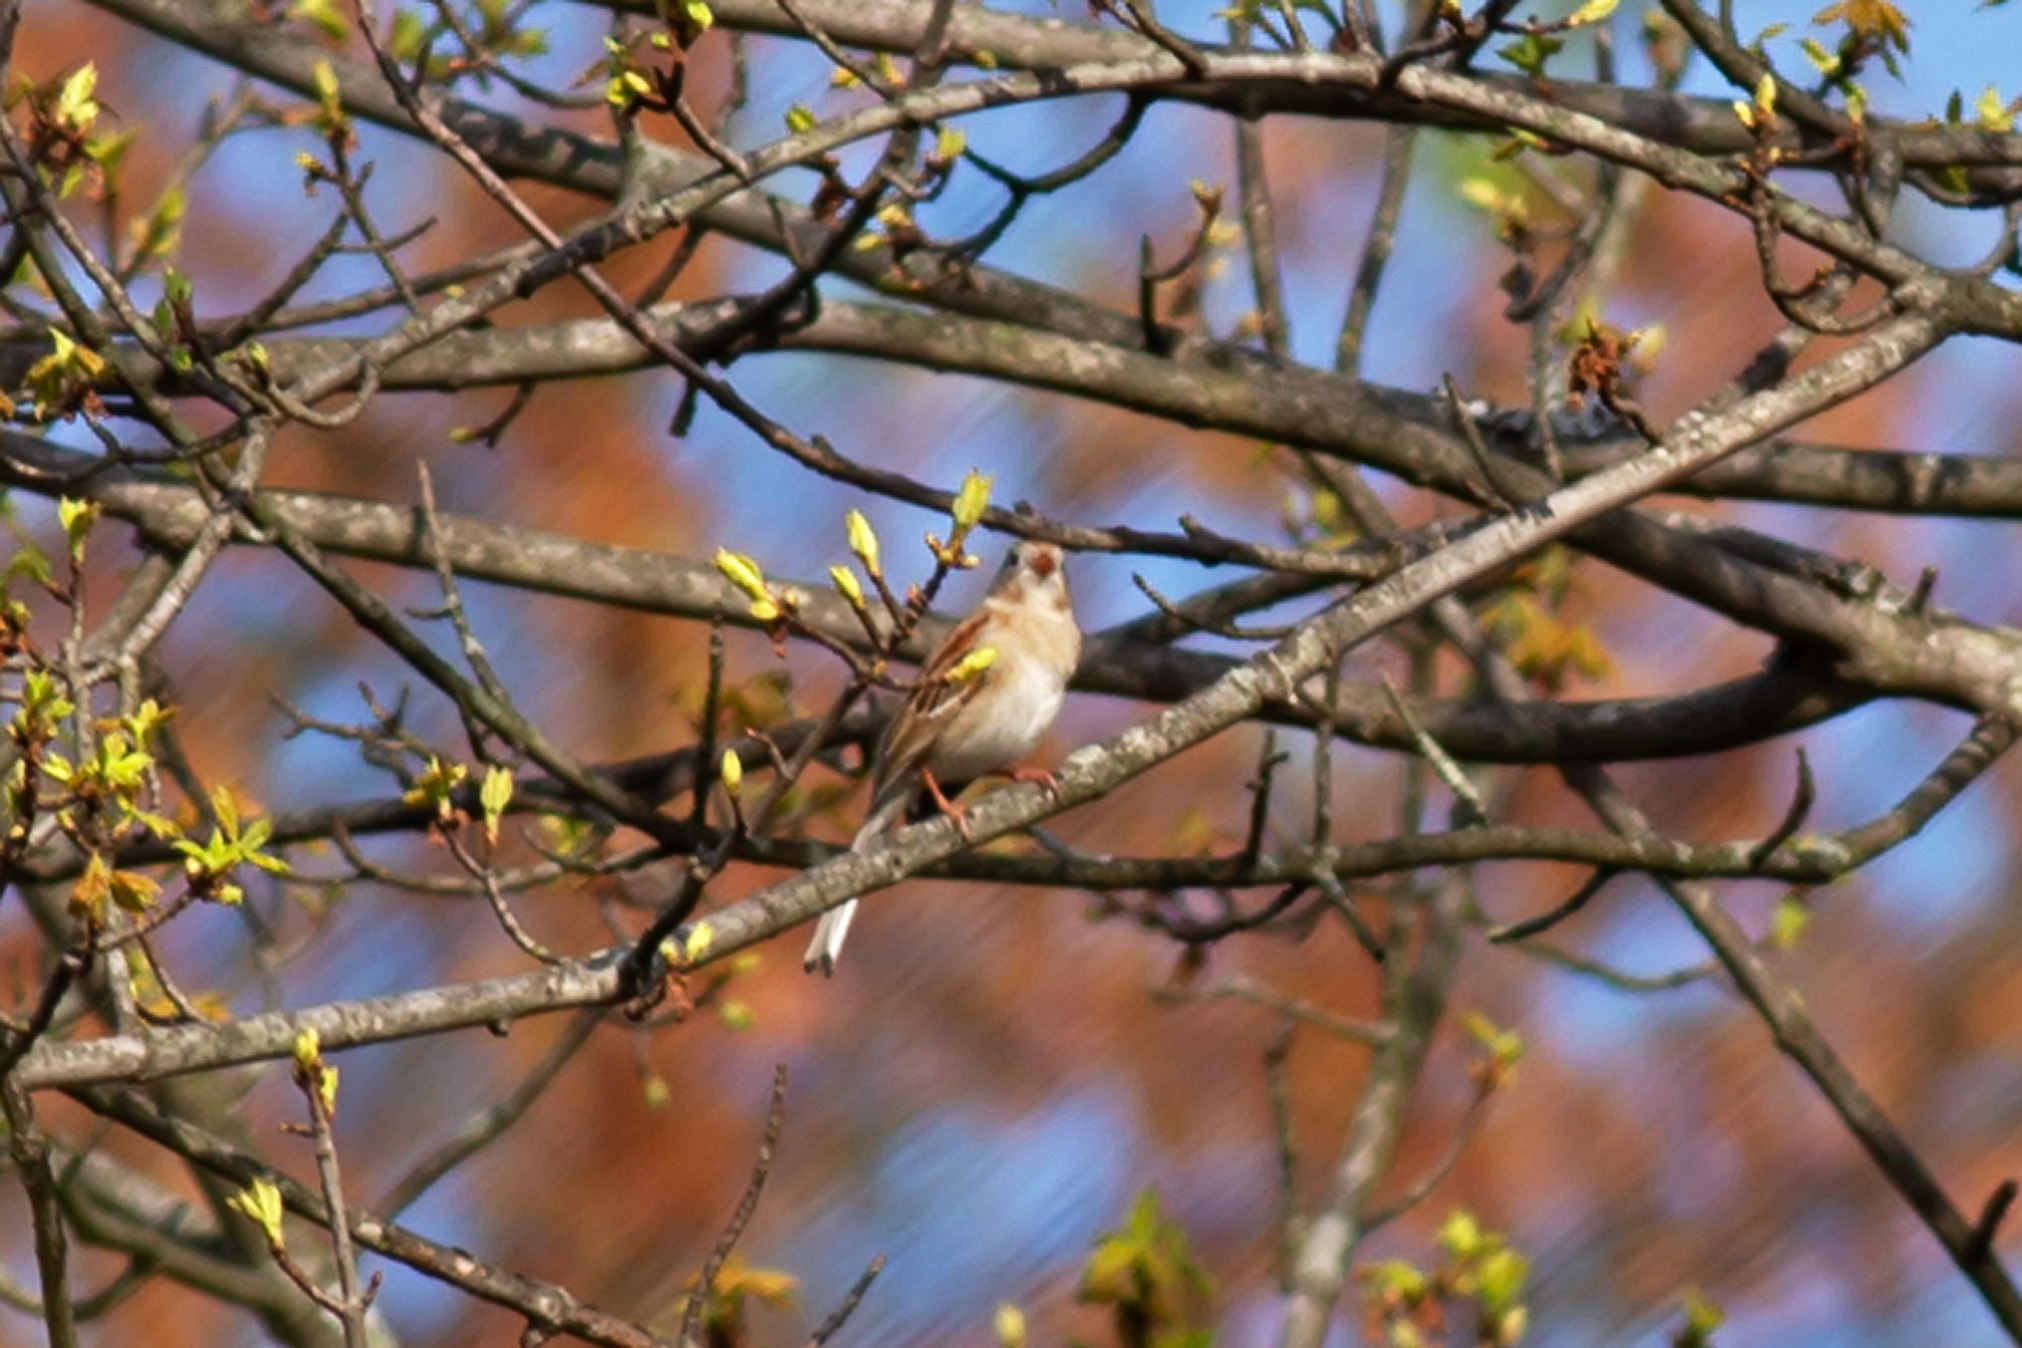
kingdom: Animalia
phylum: Chordata
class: Aves
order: Passeriformes
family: Passerellidae
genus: Spizella
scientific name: Spizella pusilla
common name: Field sparrow
